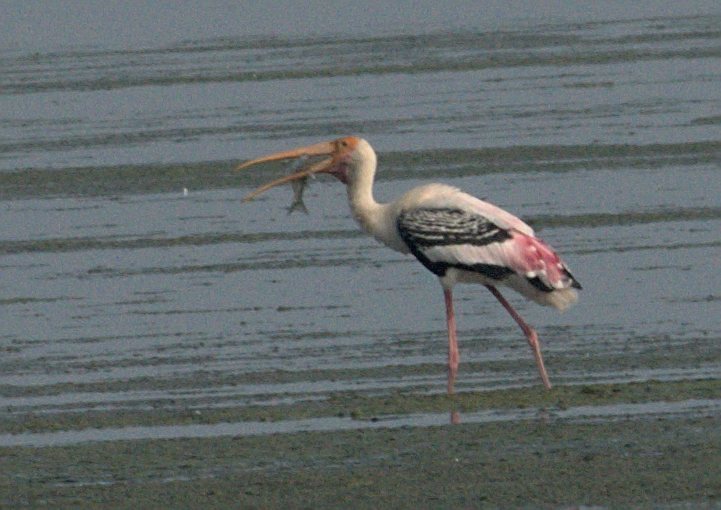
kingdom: Animalia
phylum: Chordata
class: Aves
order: Ciconiiformes
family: Ciconiidae
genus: Mycteria
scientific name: Mycteria leucocephala
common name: Painted stork
